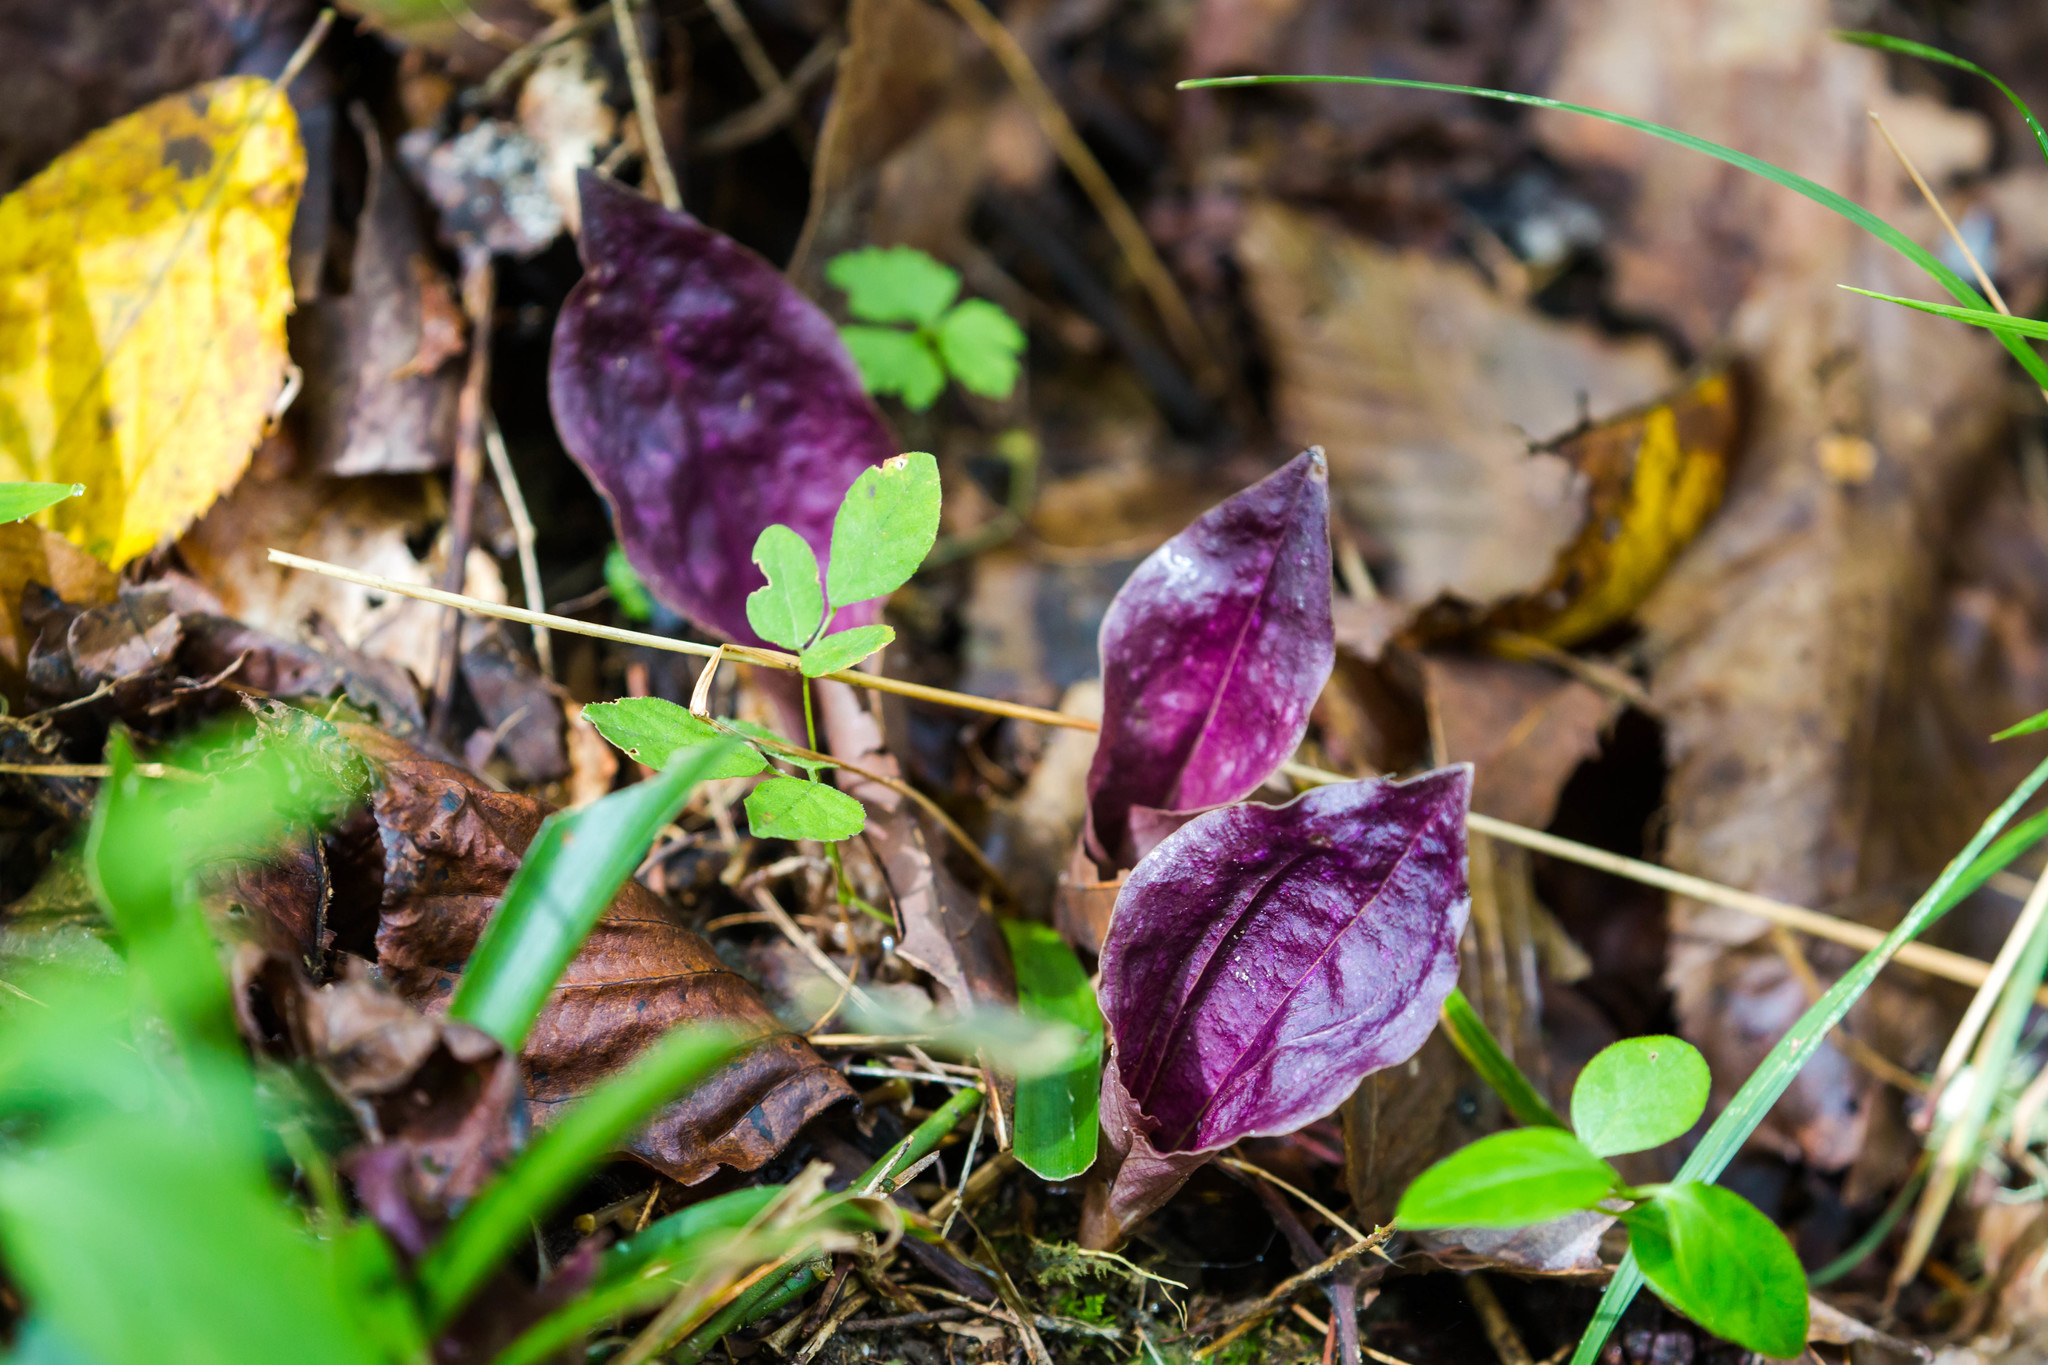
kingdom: Plantae
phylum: Tracheophyta
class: Liliopsida
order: Asparagales
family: Orchidaceae
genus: Tipularia
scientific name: Tipularia discolor
